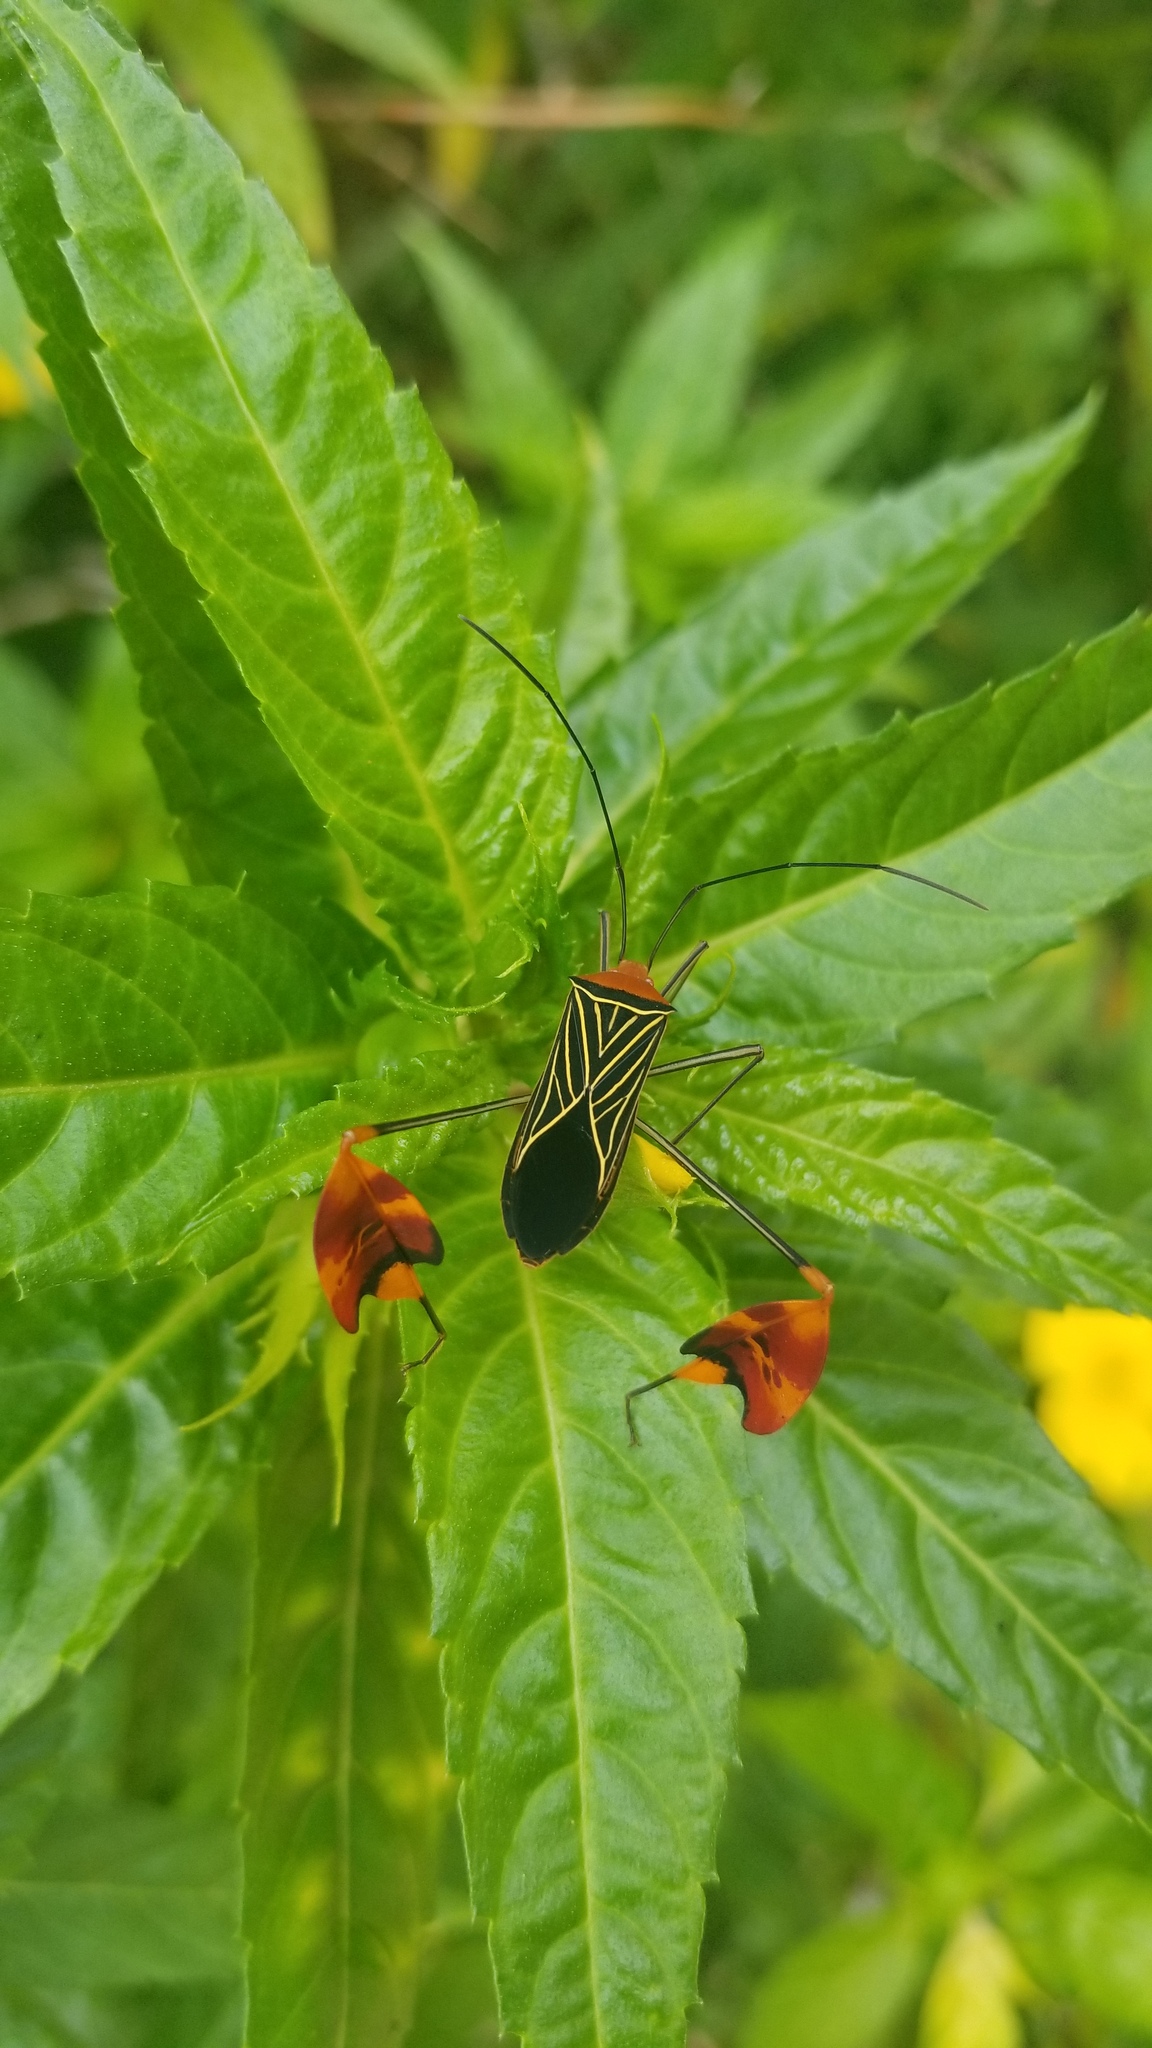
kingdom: Animalia
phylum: Arthropoda
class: Insecta
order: Hemiptera
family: Coreidae
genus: Bitta
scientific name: Bitta
